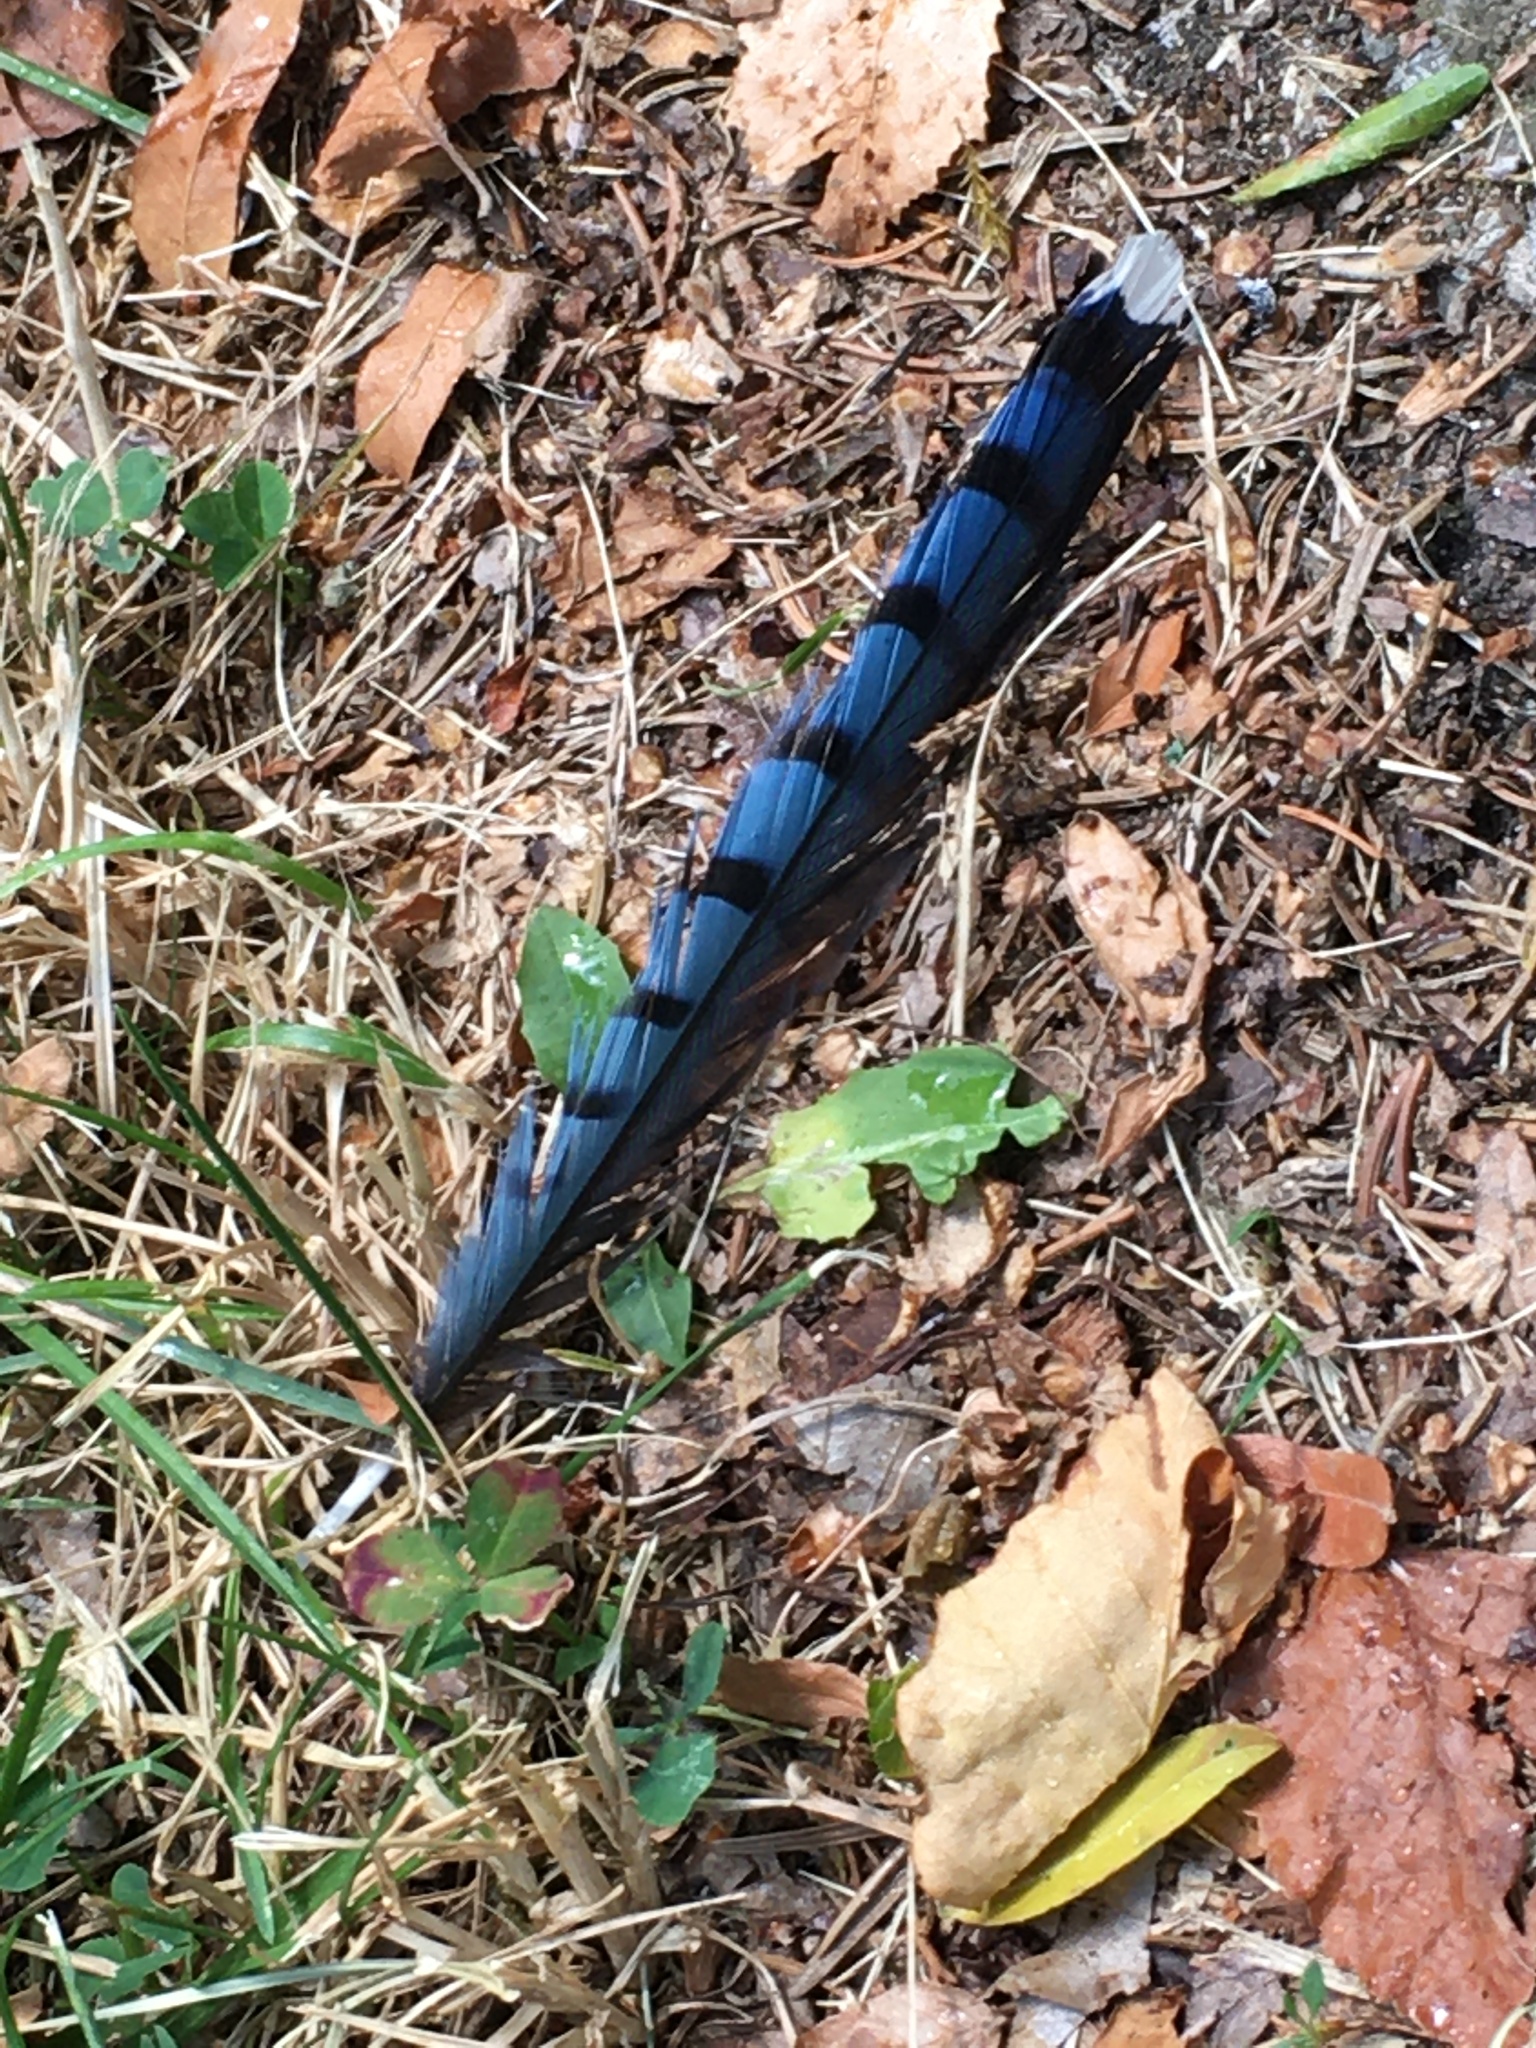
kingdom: Animalia
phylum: Chordata
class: Aves
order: Passeriformes
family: Corvidae
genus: Cyanocitta
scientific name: Cyanocitta cristata
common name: Blue jay
